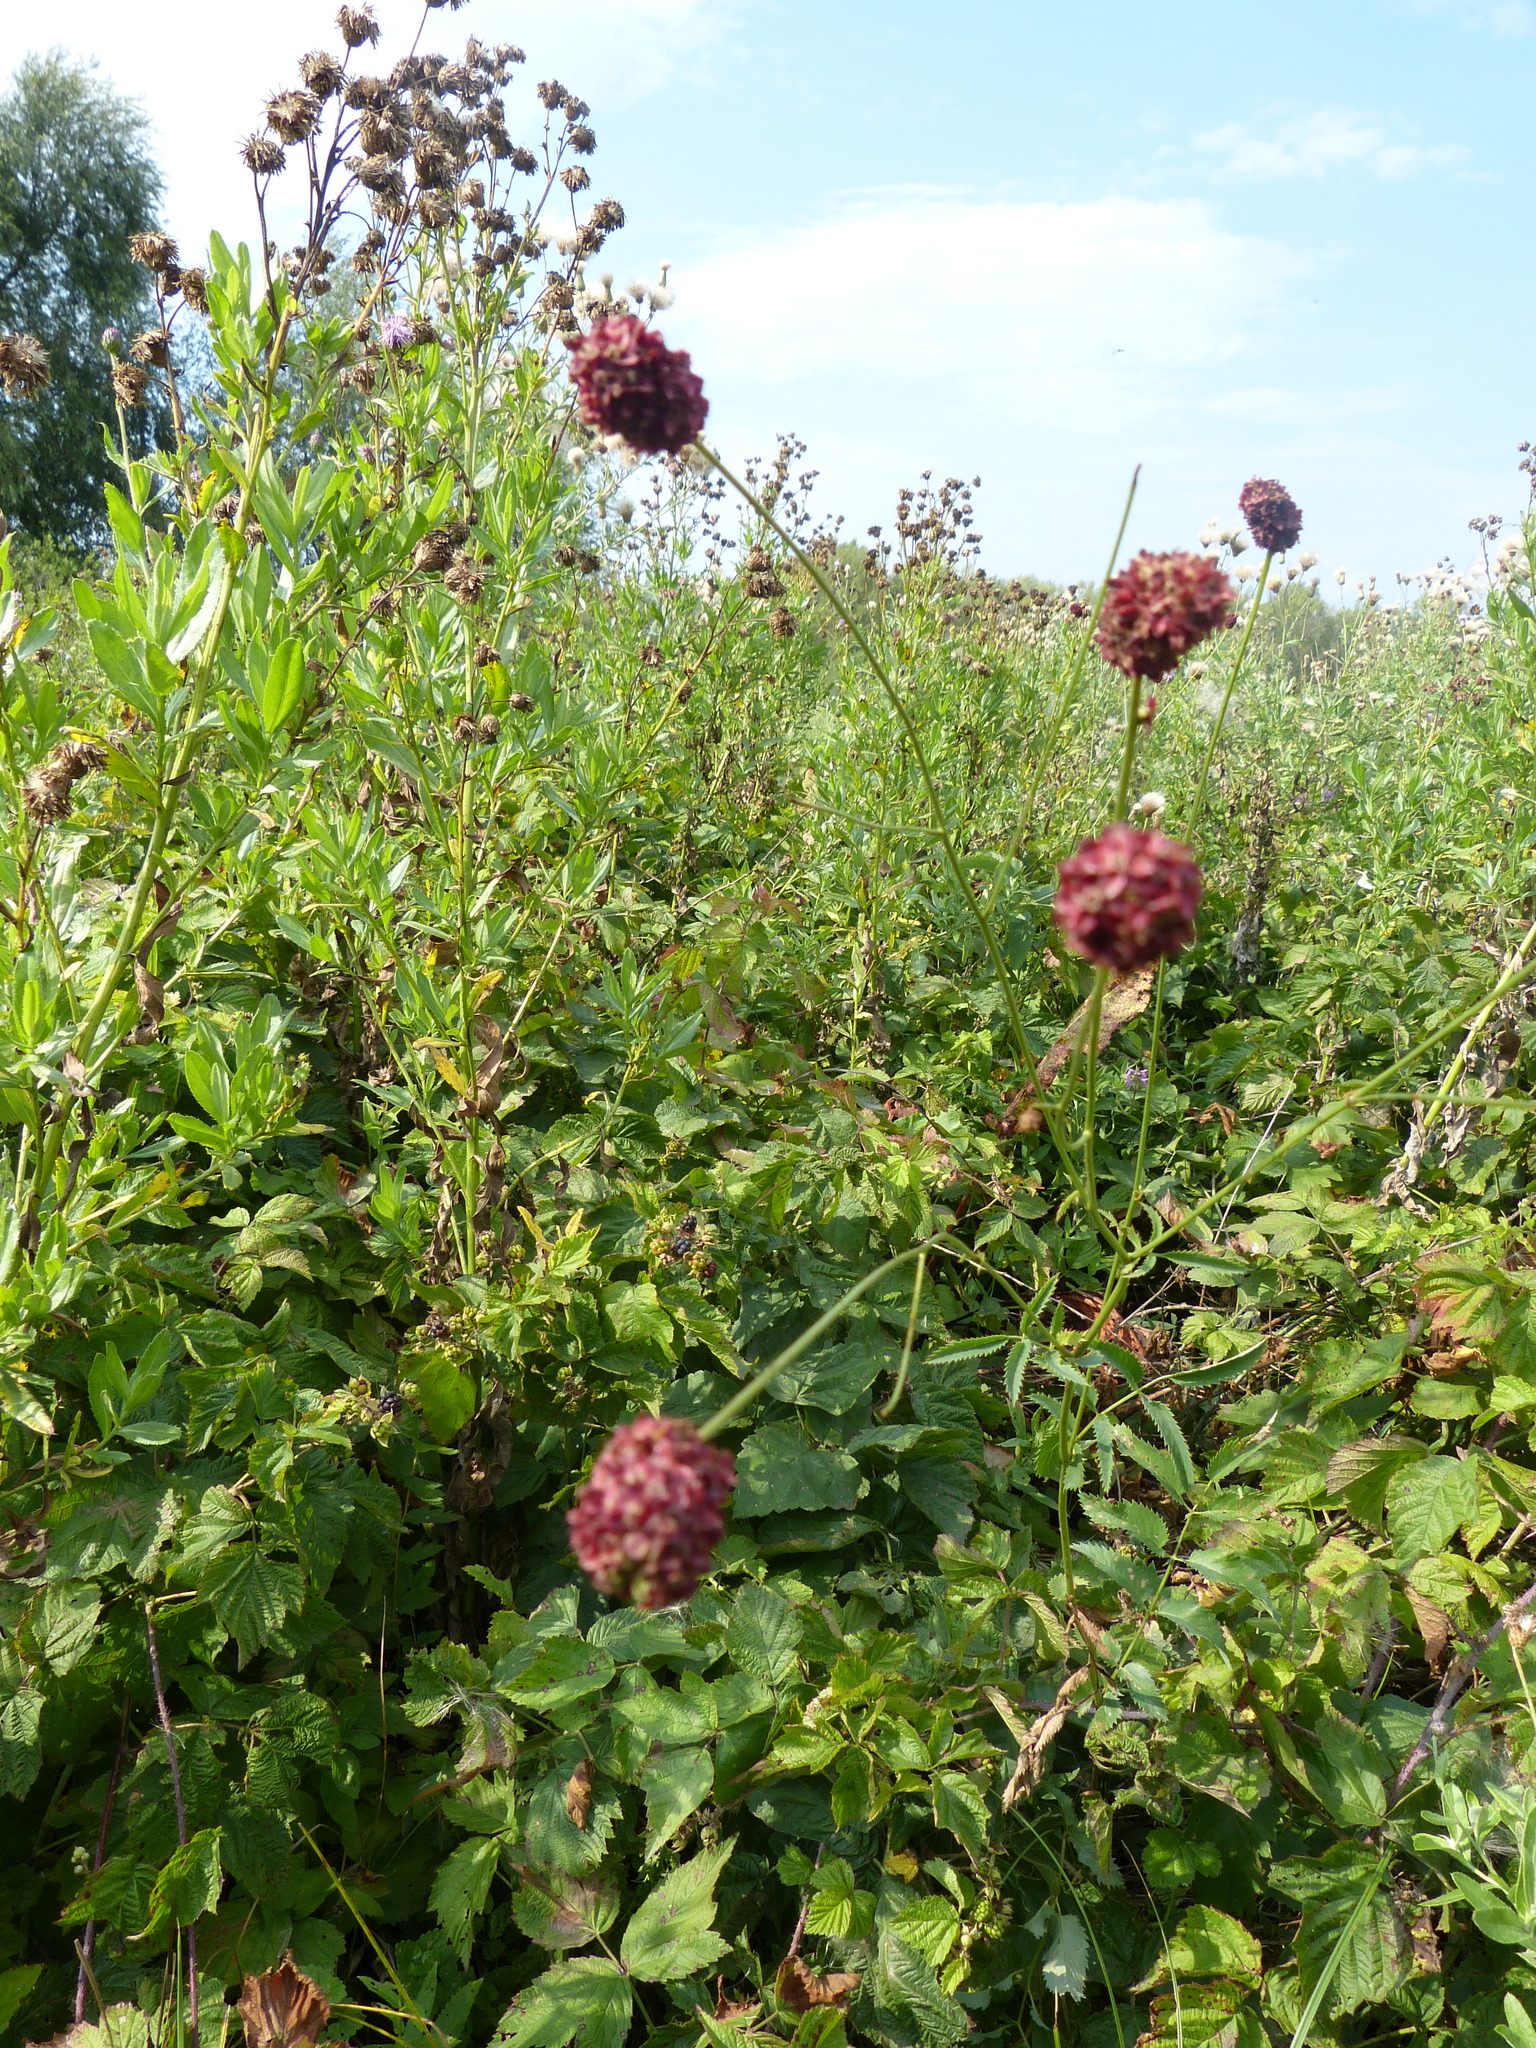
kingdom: Plantae
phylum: Tracheophyta
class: Magnoliopsida
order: Rosales
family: Rosaceae
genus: Sanguisorba
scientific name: Sanguisorba officinalis
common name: Great burnet
